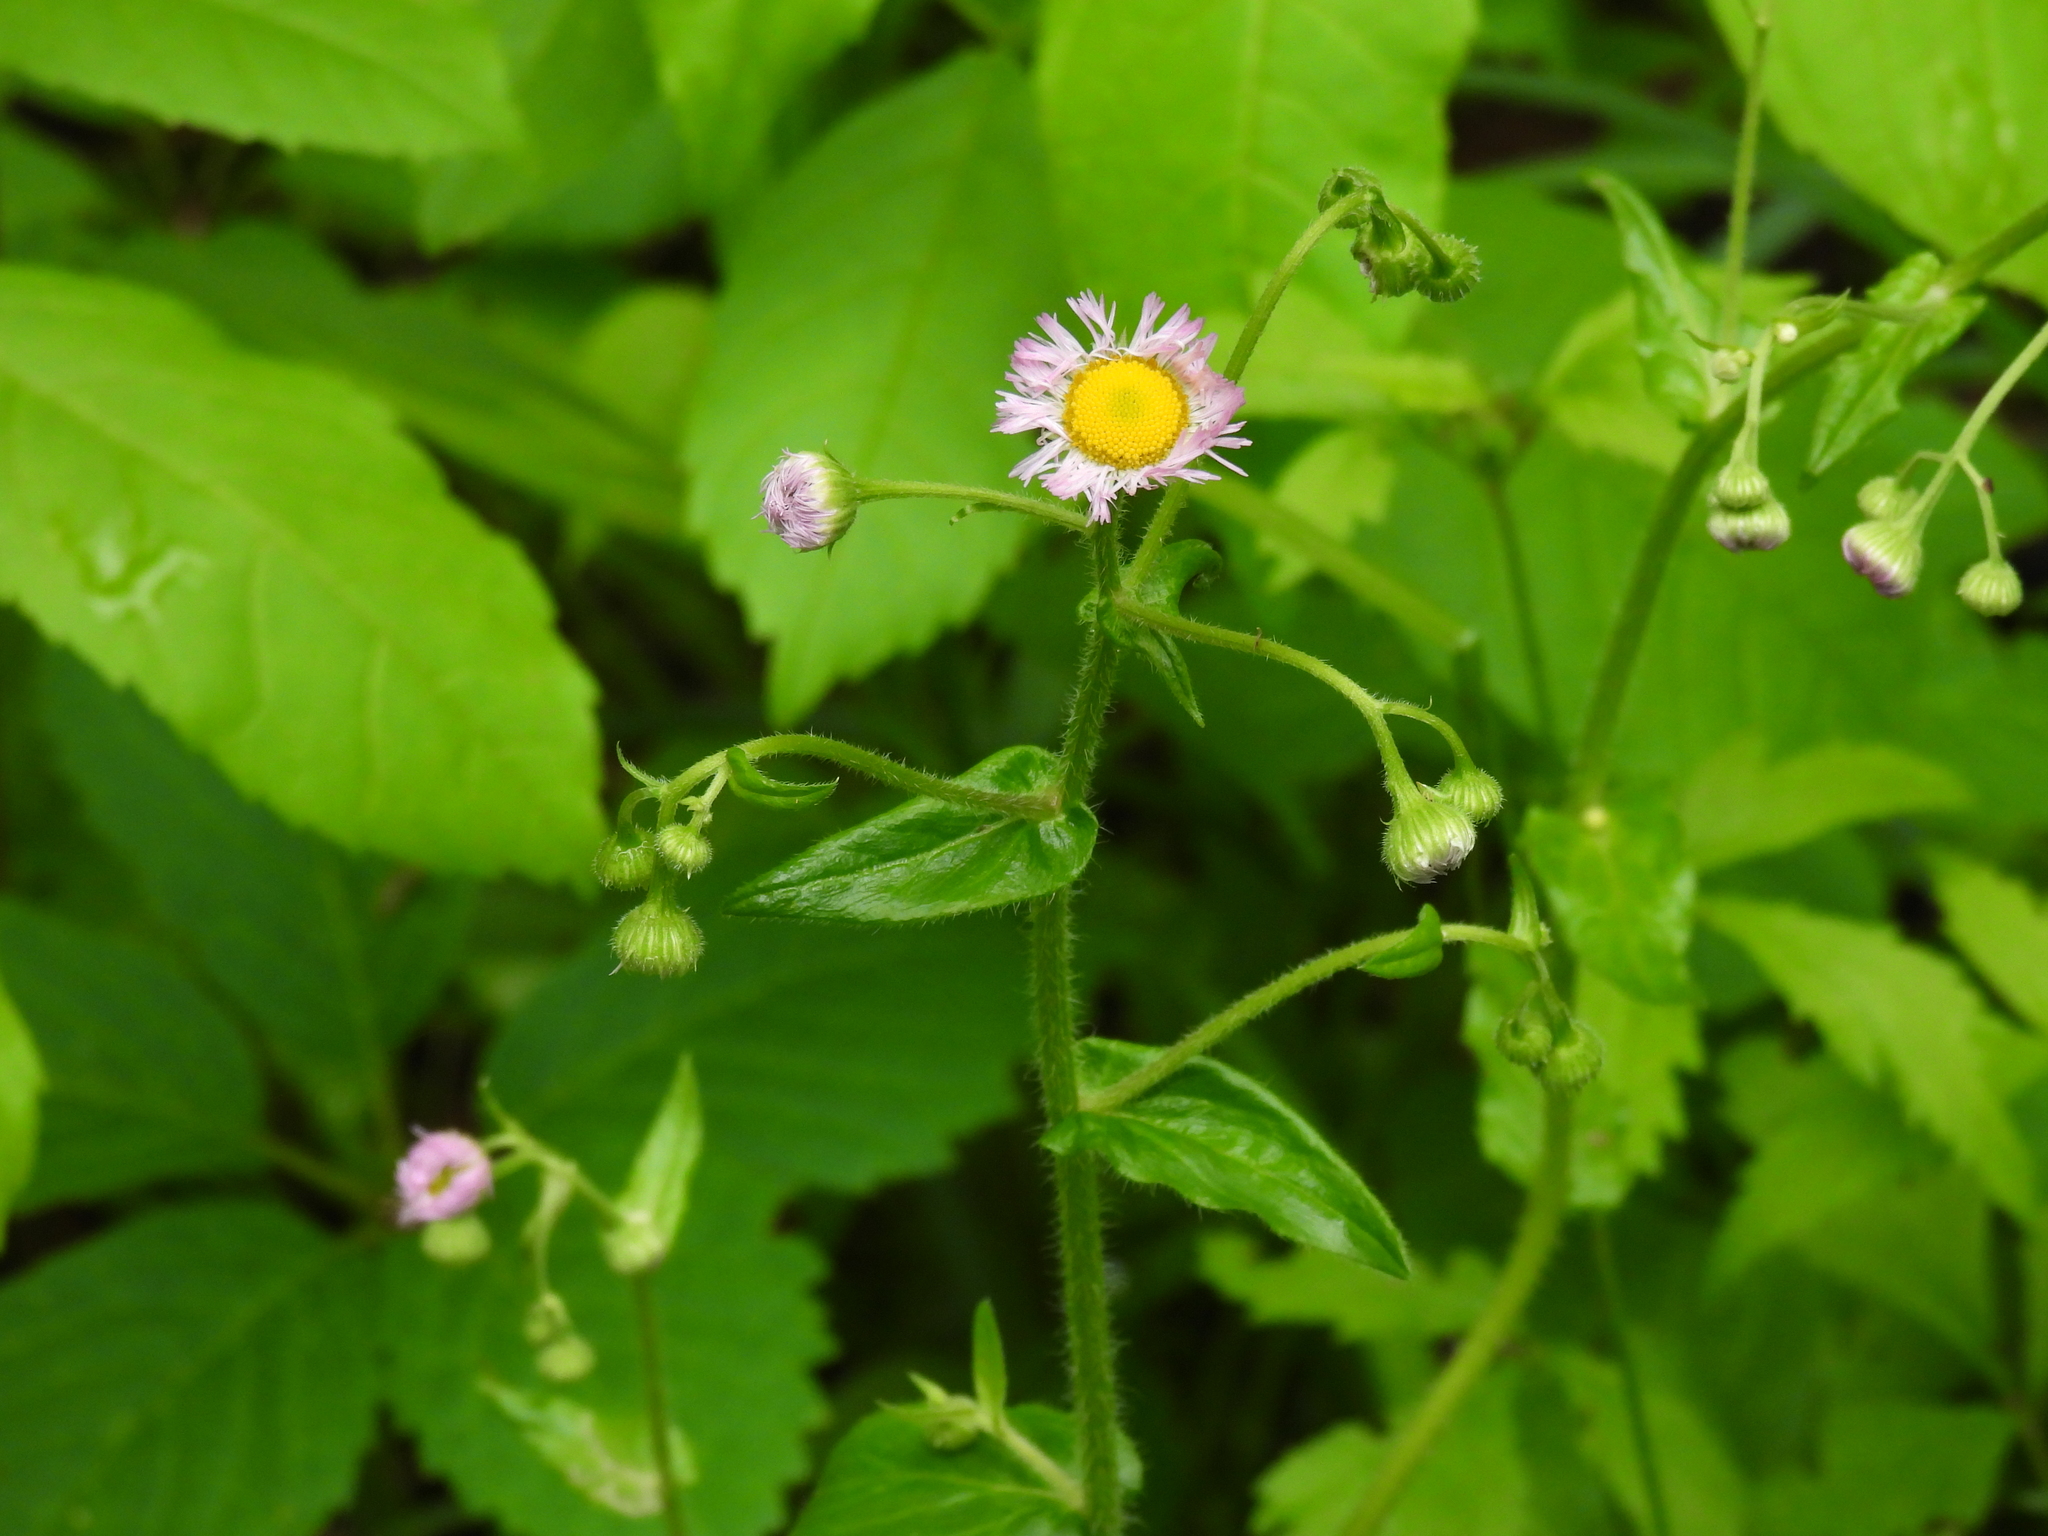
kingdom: Plantae
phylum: Tracheophyta
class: Magnoliopsida
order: Asterales
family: Asteraceae
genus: Erigeron
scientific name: Erigeron philadelphicus
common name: Robin's-plantain
